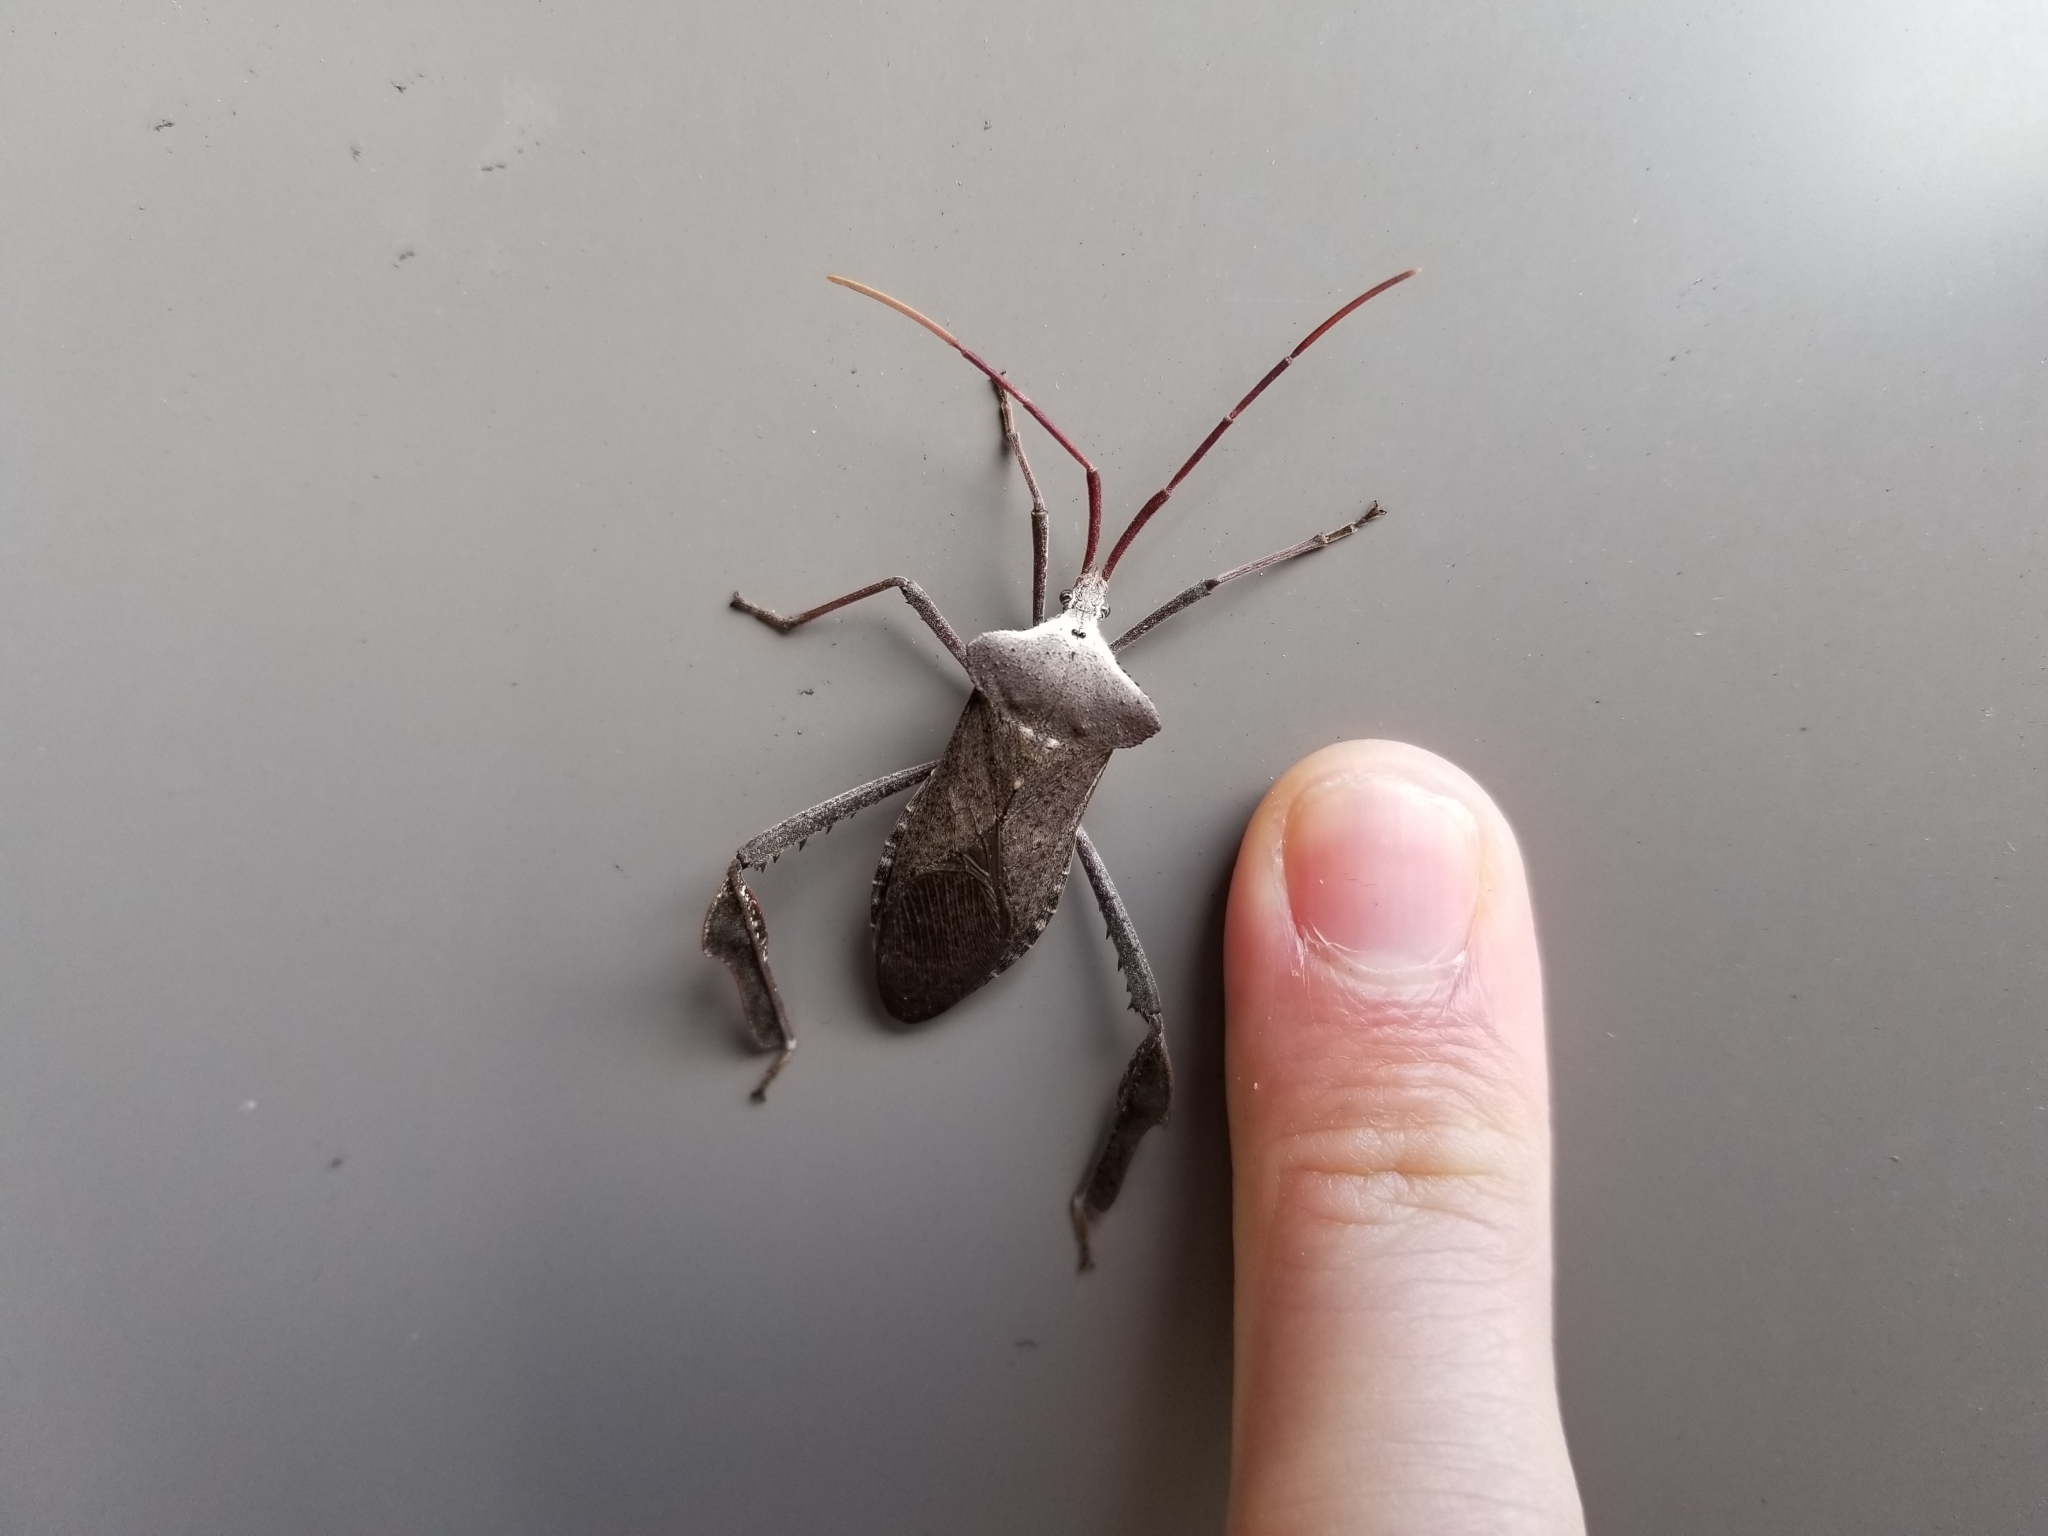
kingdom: Animalia
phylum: Arthropoda
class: Insecta
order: Hemiptera
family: Coreidae
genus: Acanthocephala
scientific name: Acanthocephala declivis
